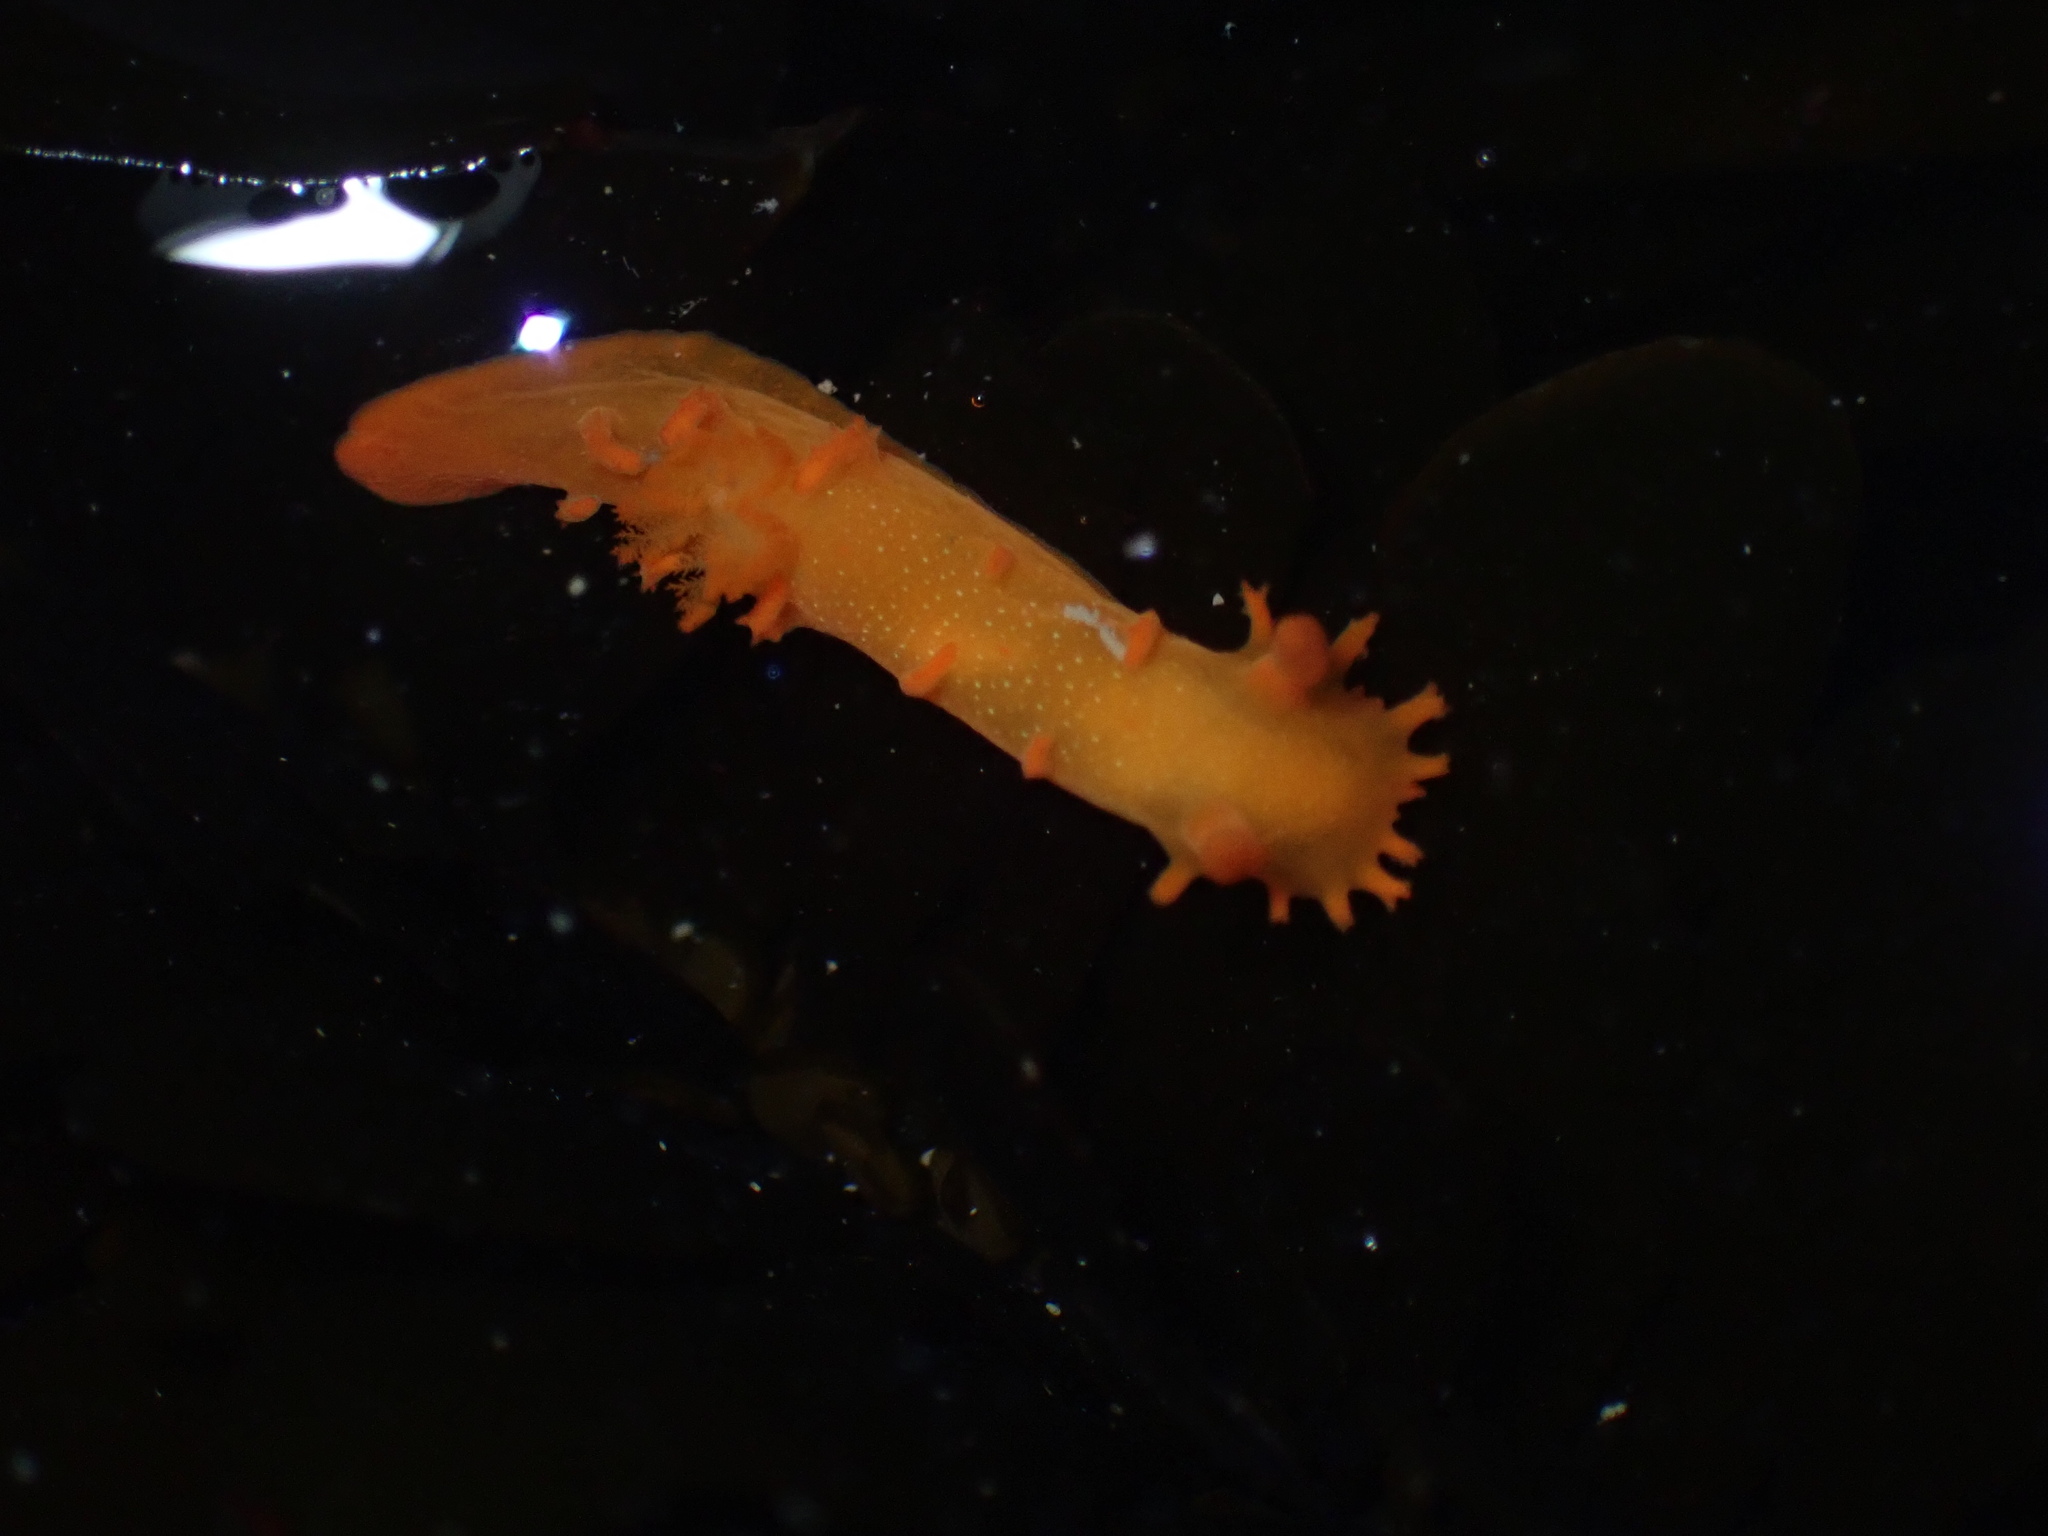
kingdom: Animalia
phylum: Mollusca
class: Gastropoda
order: Nudibranchia
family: Polyceridae
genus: Triopha
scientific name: Triopha maculata
